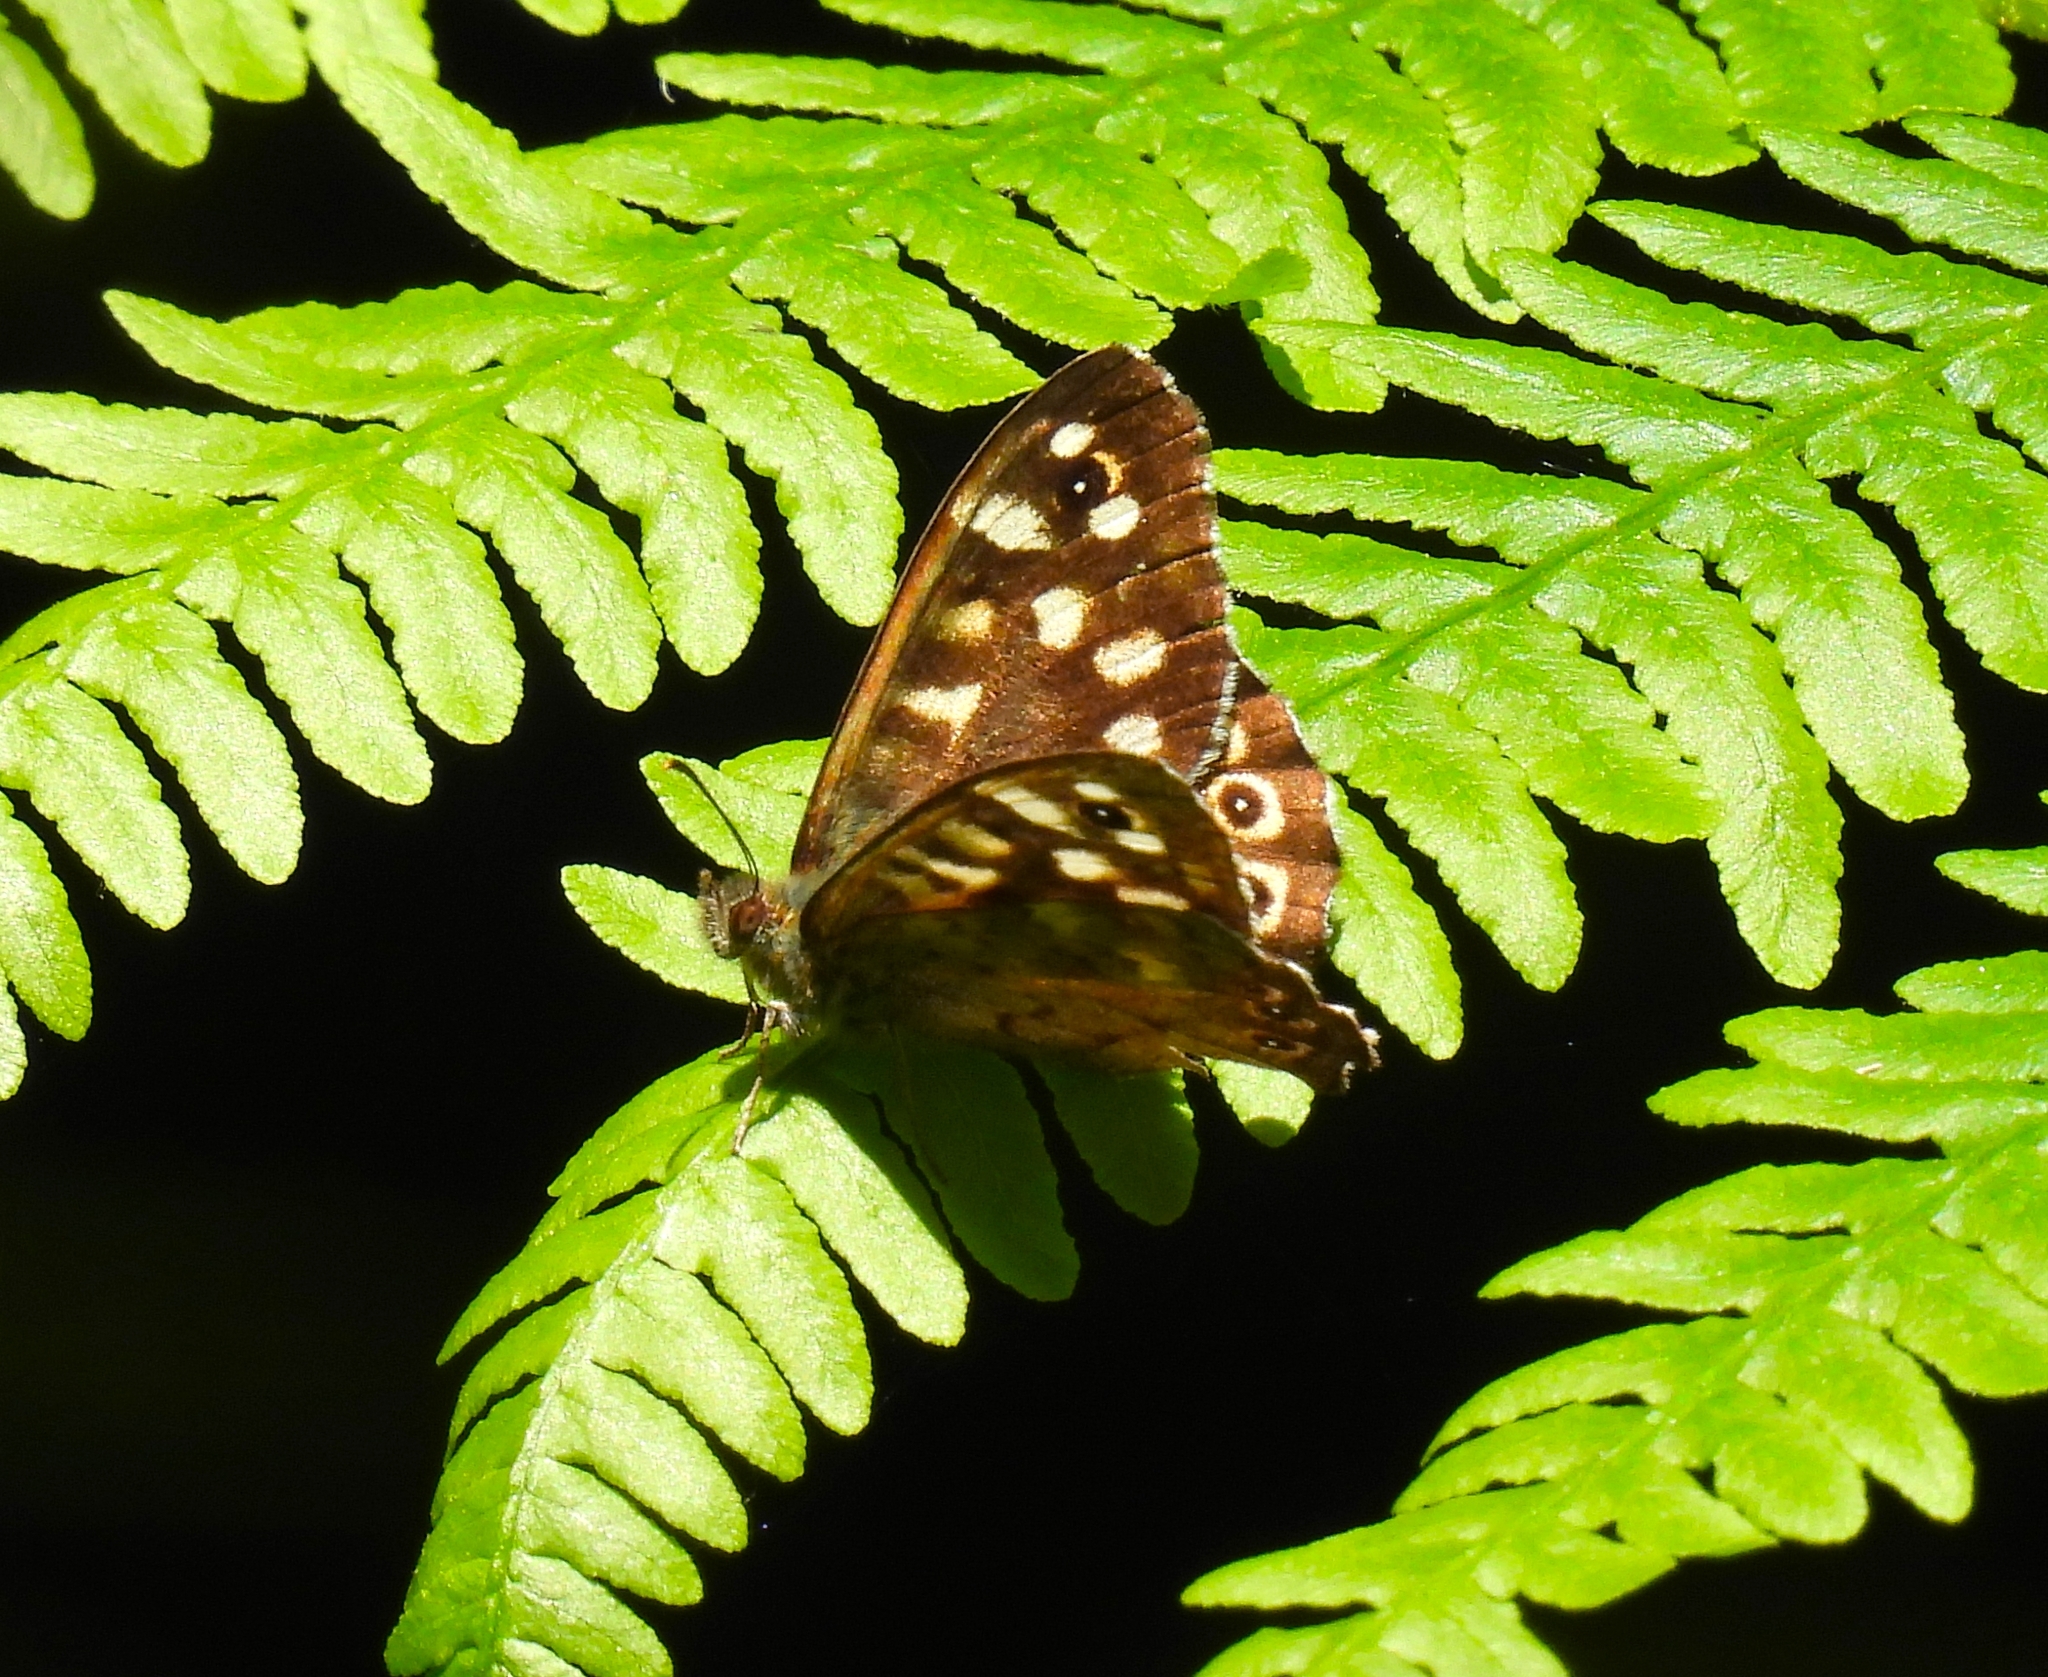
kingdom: Animalia
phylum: Arthropoda
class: Insecta
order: Lepidoptera
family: Nymphalidae
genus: Pararge
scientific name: Pararge aegeria
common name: Speckled wood
